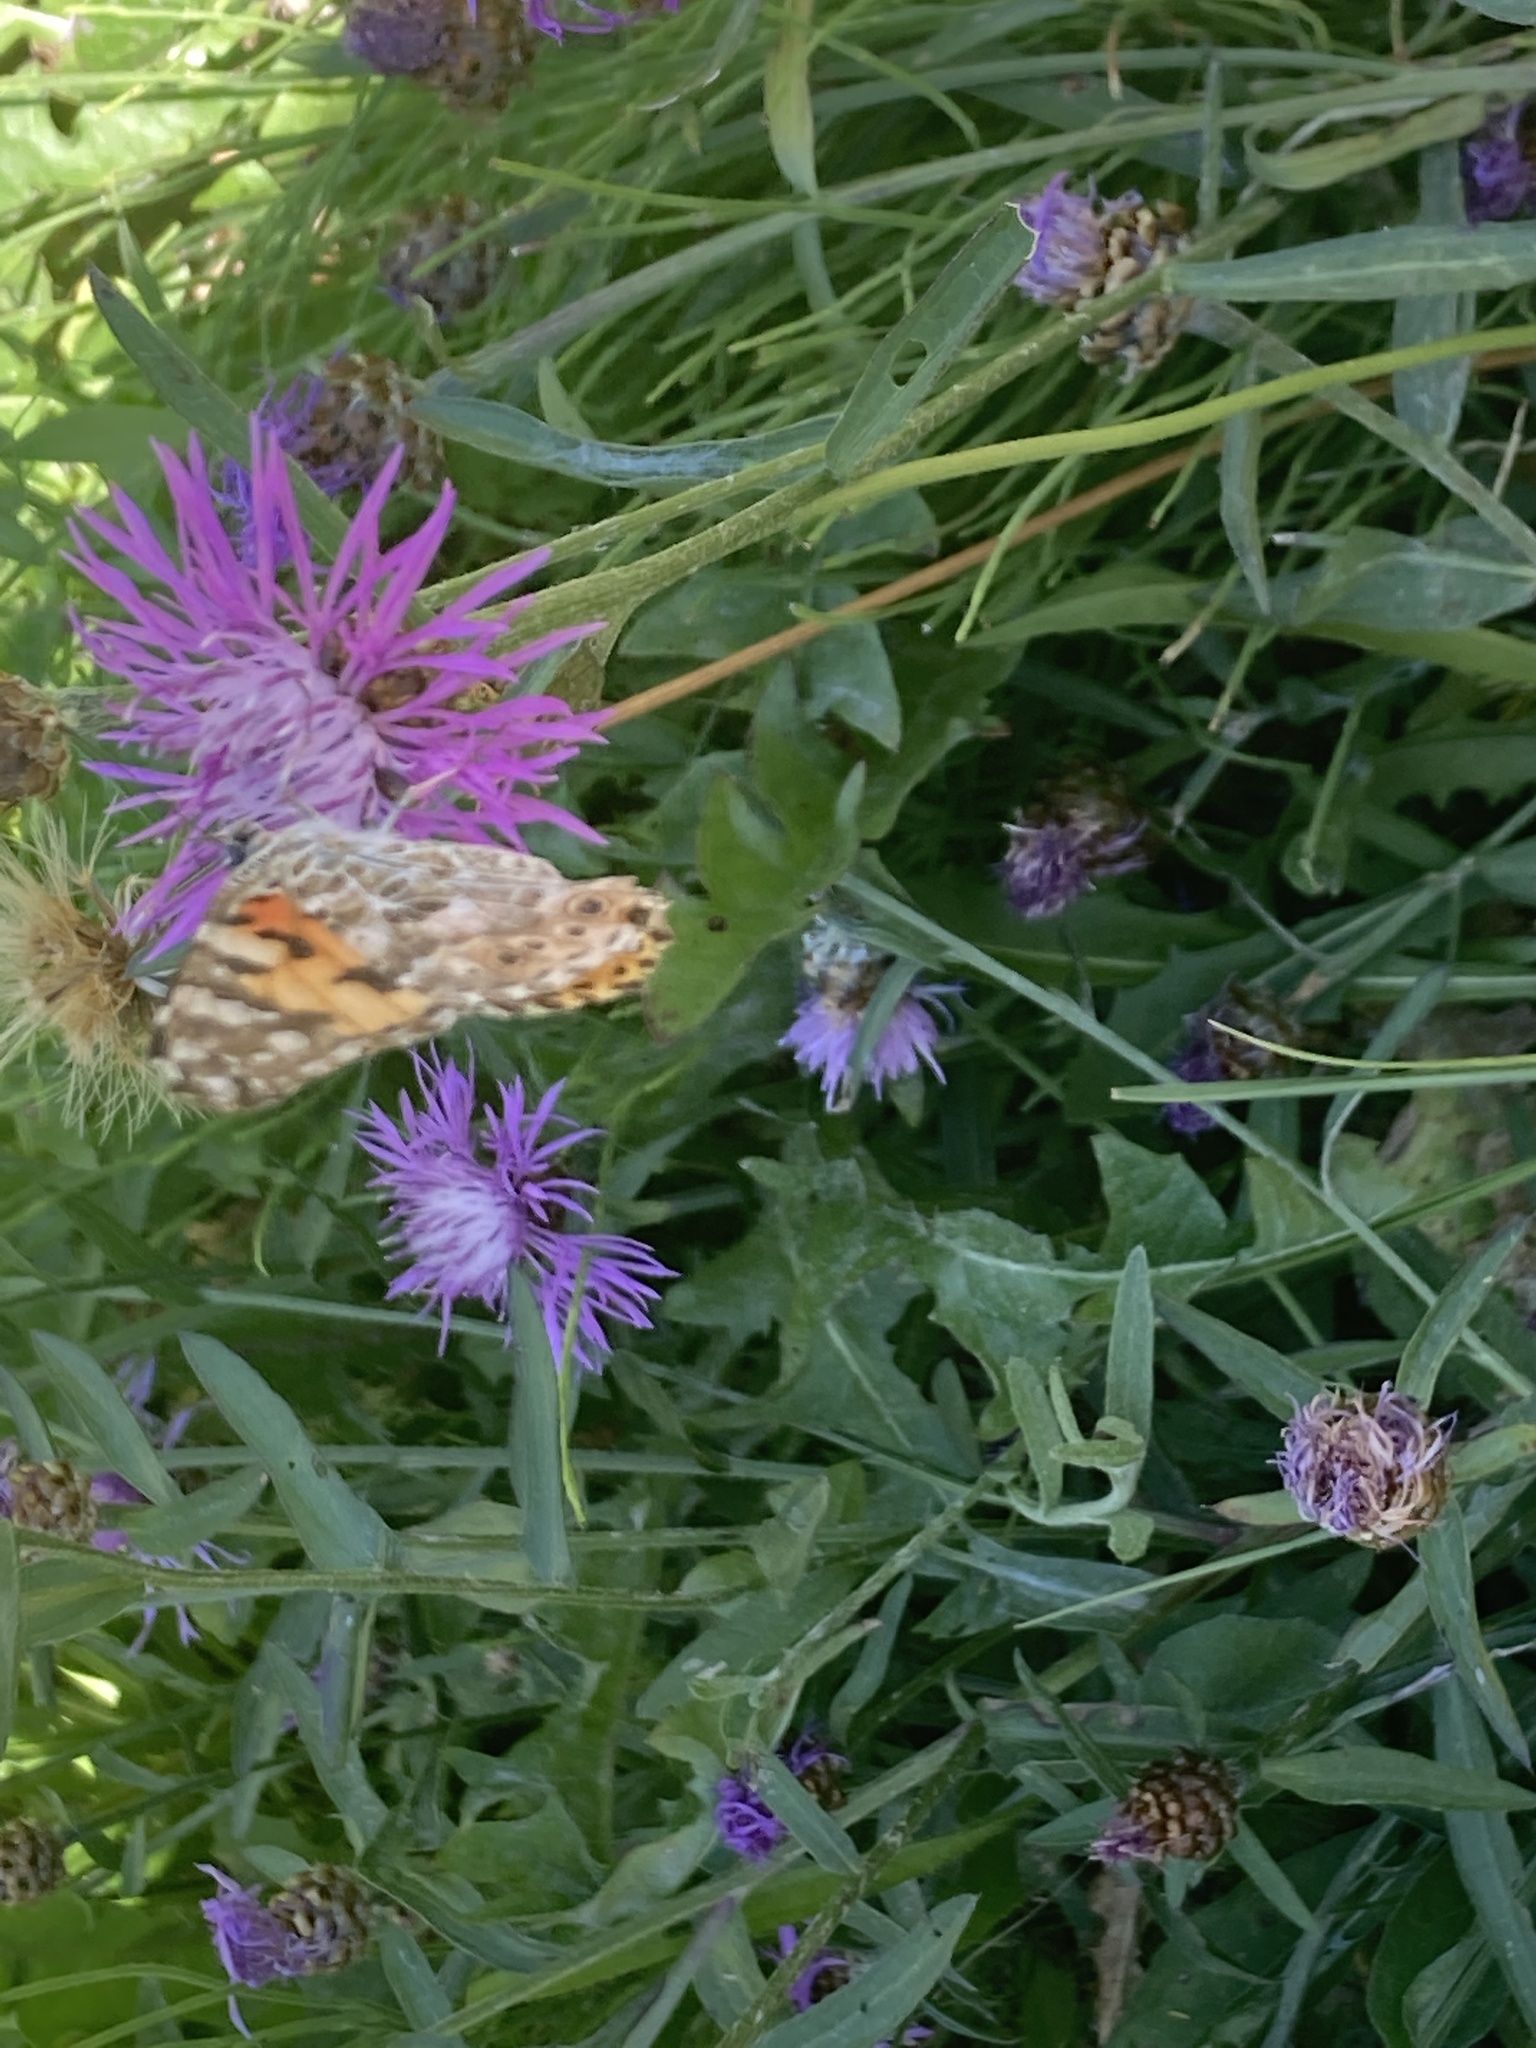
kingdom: Animalia
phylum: Arthropoda
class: Insecta
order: Lepidoptera
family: Nymphalidae
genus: Vanessa
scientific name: Vanessa cardui
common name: Painted lady
